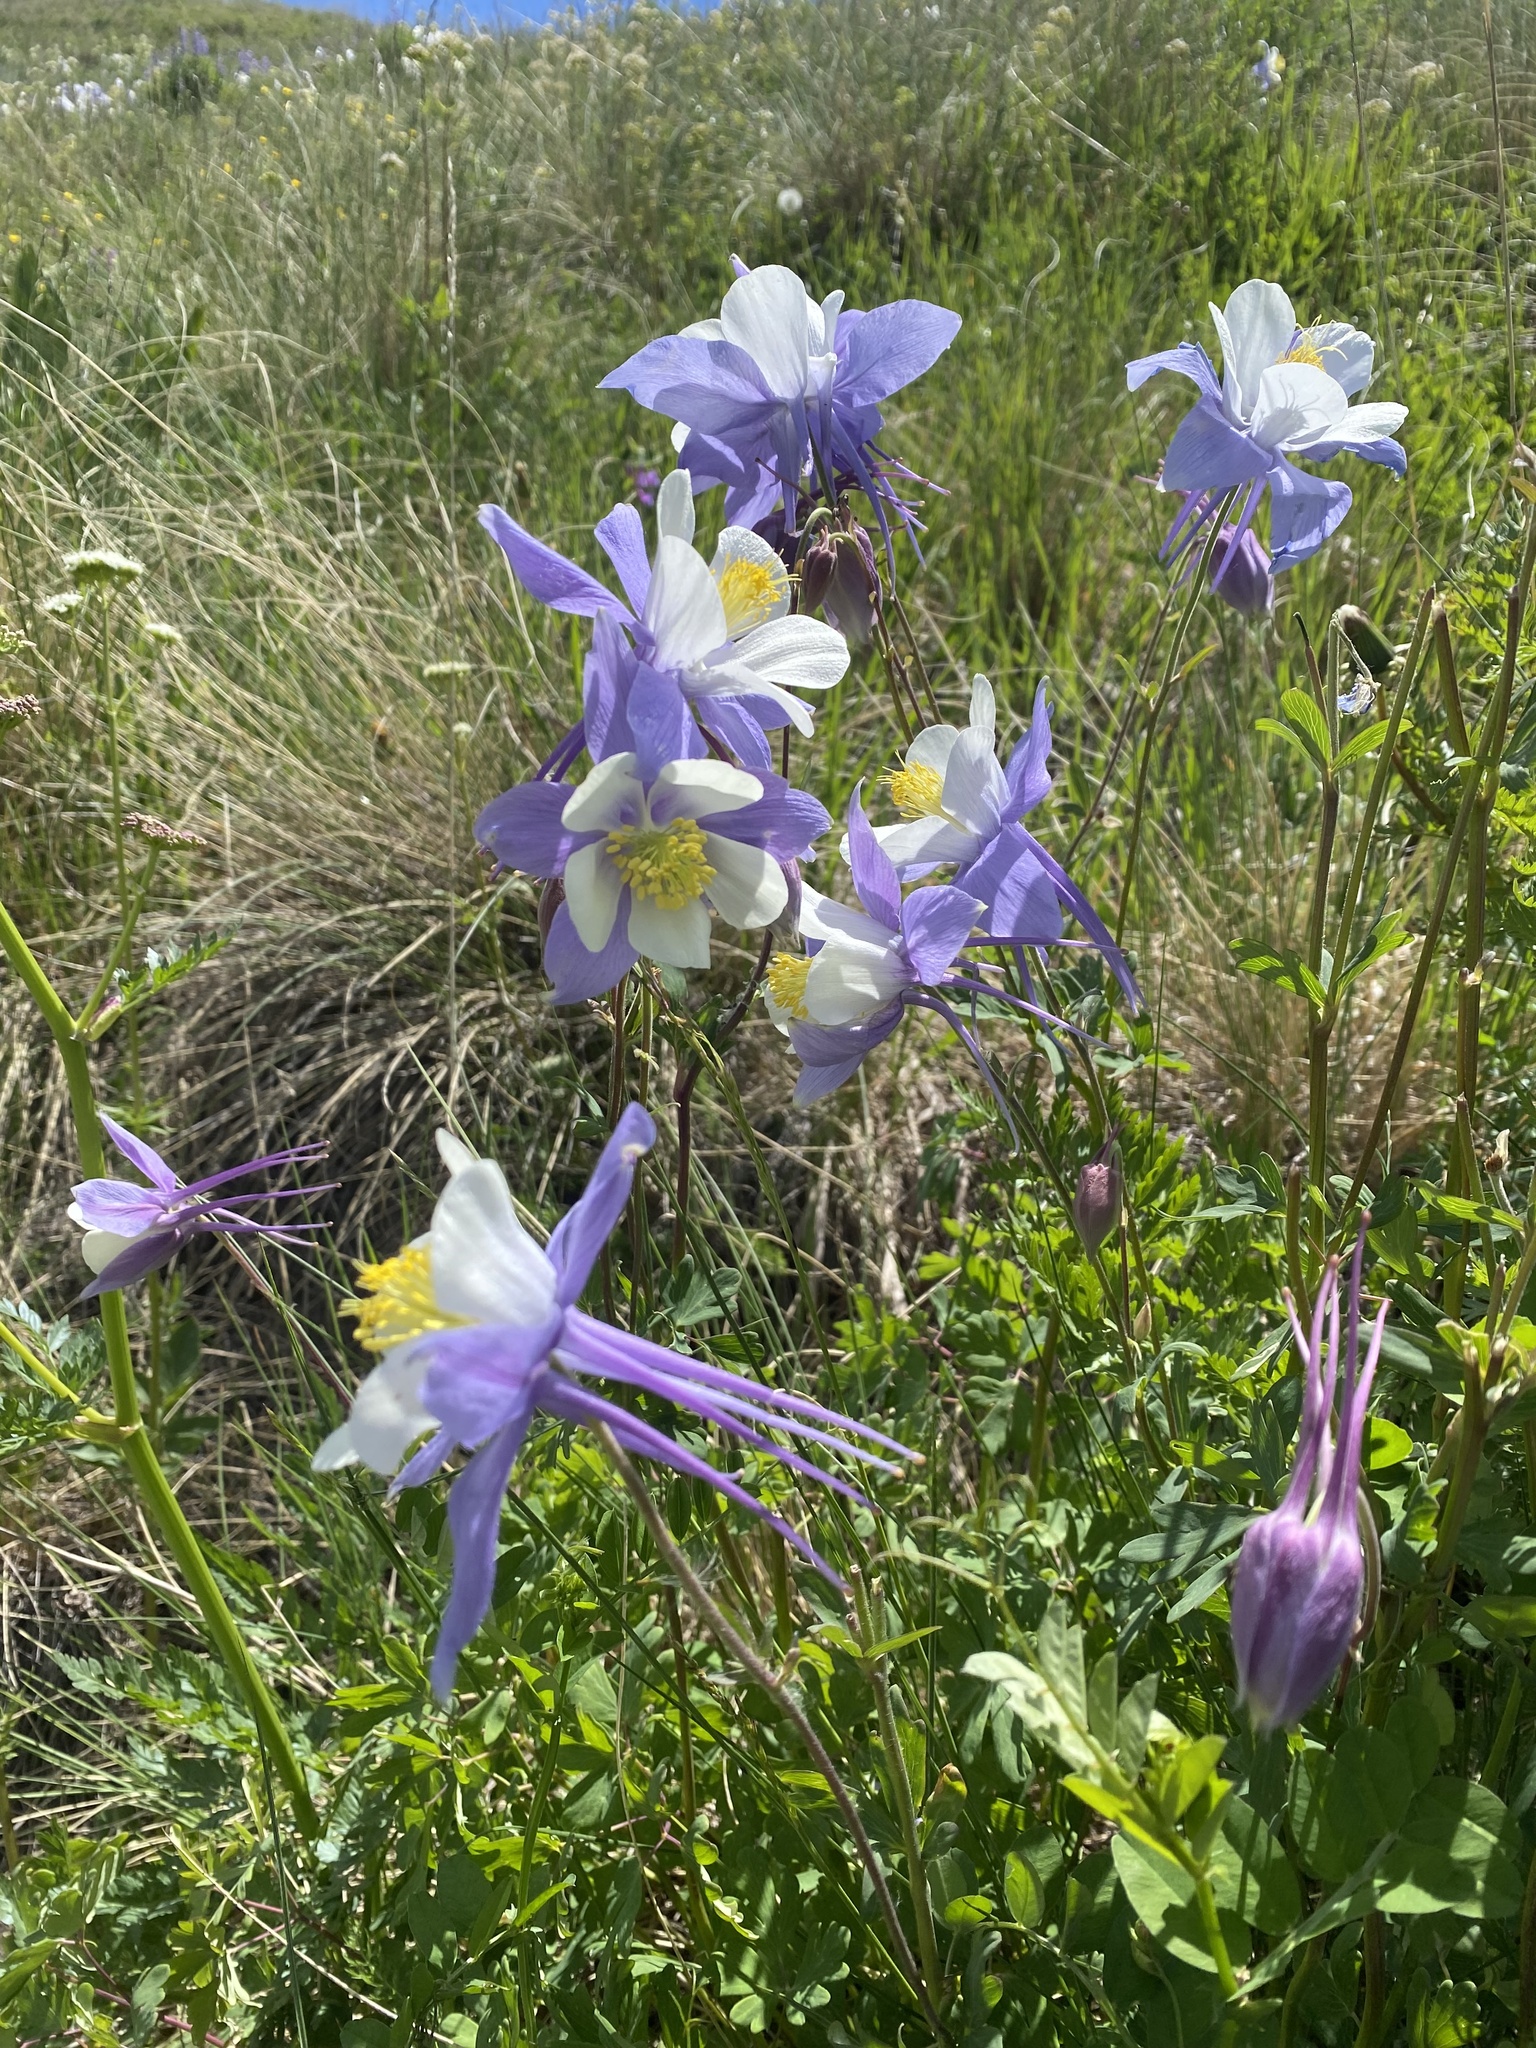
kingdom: Plantae
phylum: Tracheophyta
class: Magnoliopsida
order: Ranunculales
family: Ranunculaceae
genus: Aquilegia
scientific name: Aquilegia coerulea
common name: Rocky mountain columbine
